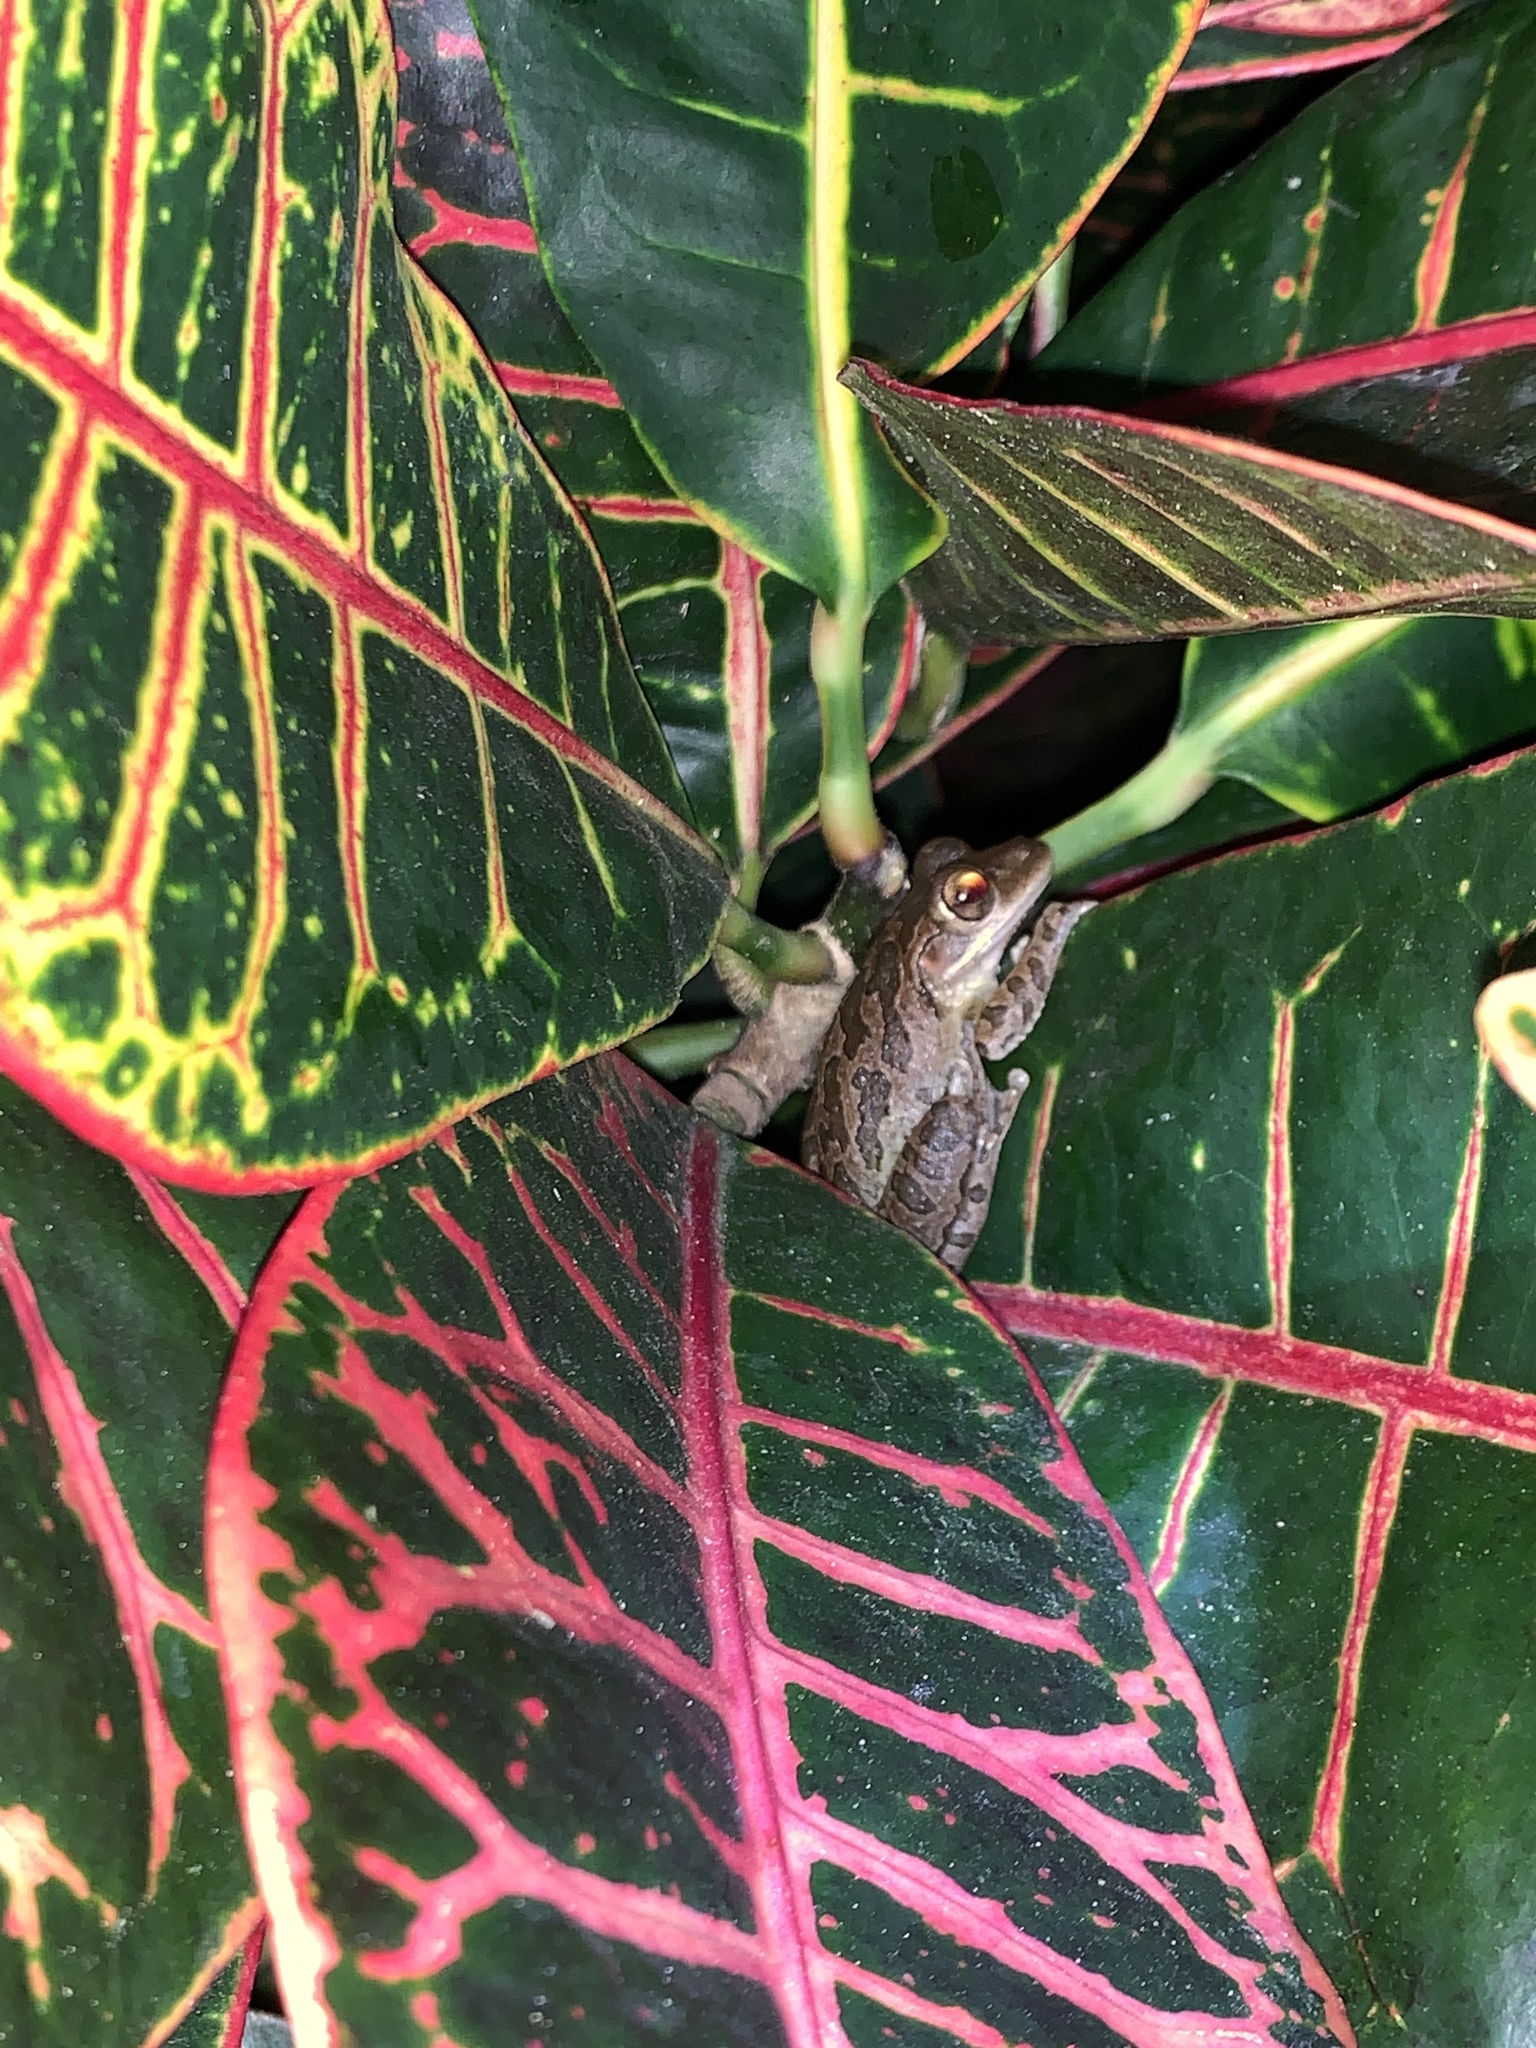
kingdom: Animalia
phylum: Chordata
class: Amphibia
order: Anura
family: Hylidae
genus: Osteopilus
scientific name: Osteopilus septentrionalis
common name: Cuban treefrog
